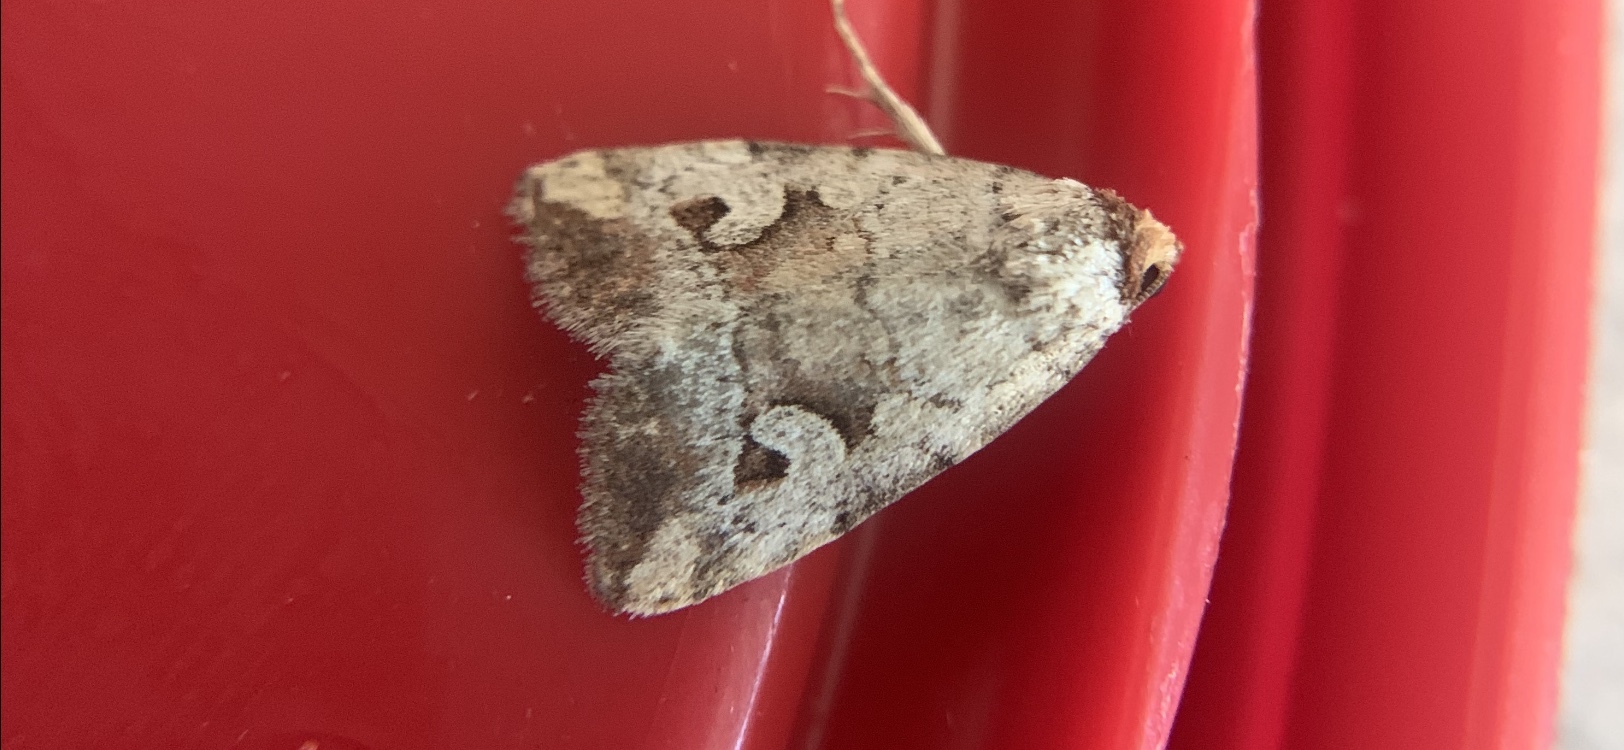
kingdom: Animalia
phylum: Arthropoda
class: Insecta
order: Lepidoptera
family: Noctuidae
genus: Elaphria
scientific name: Elaphria alapallida
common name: Pale-winged midget
